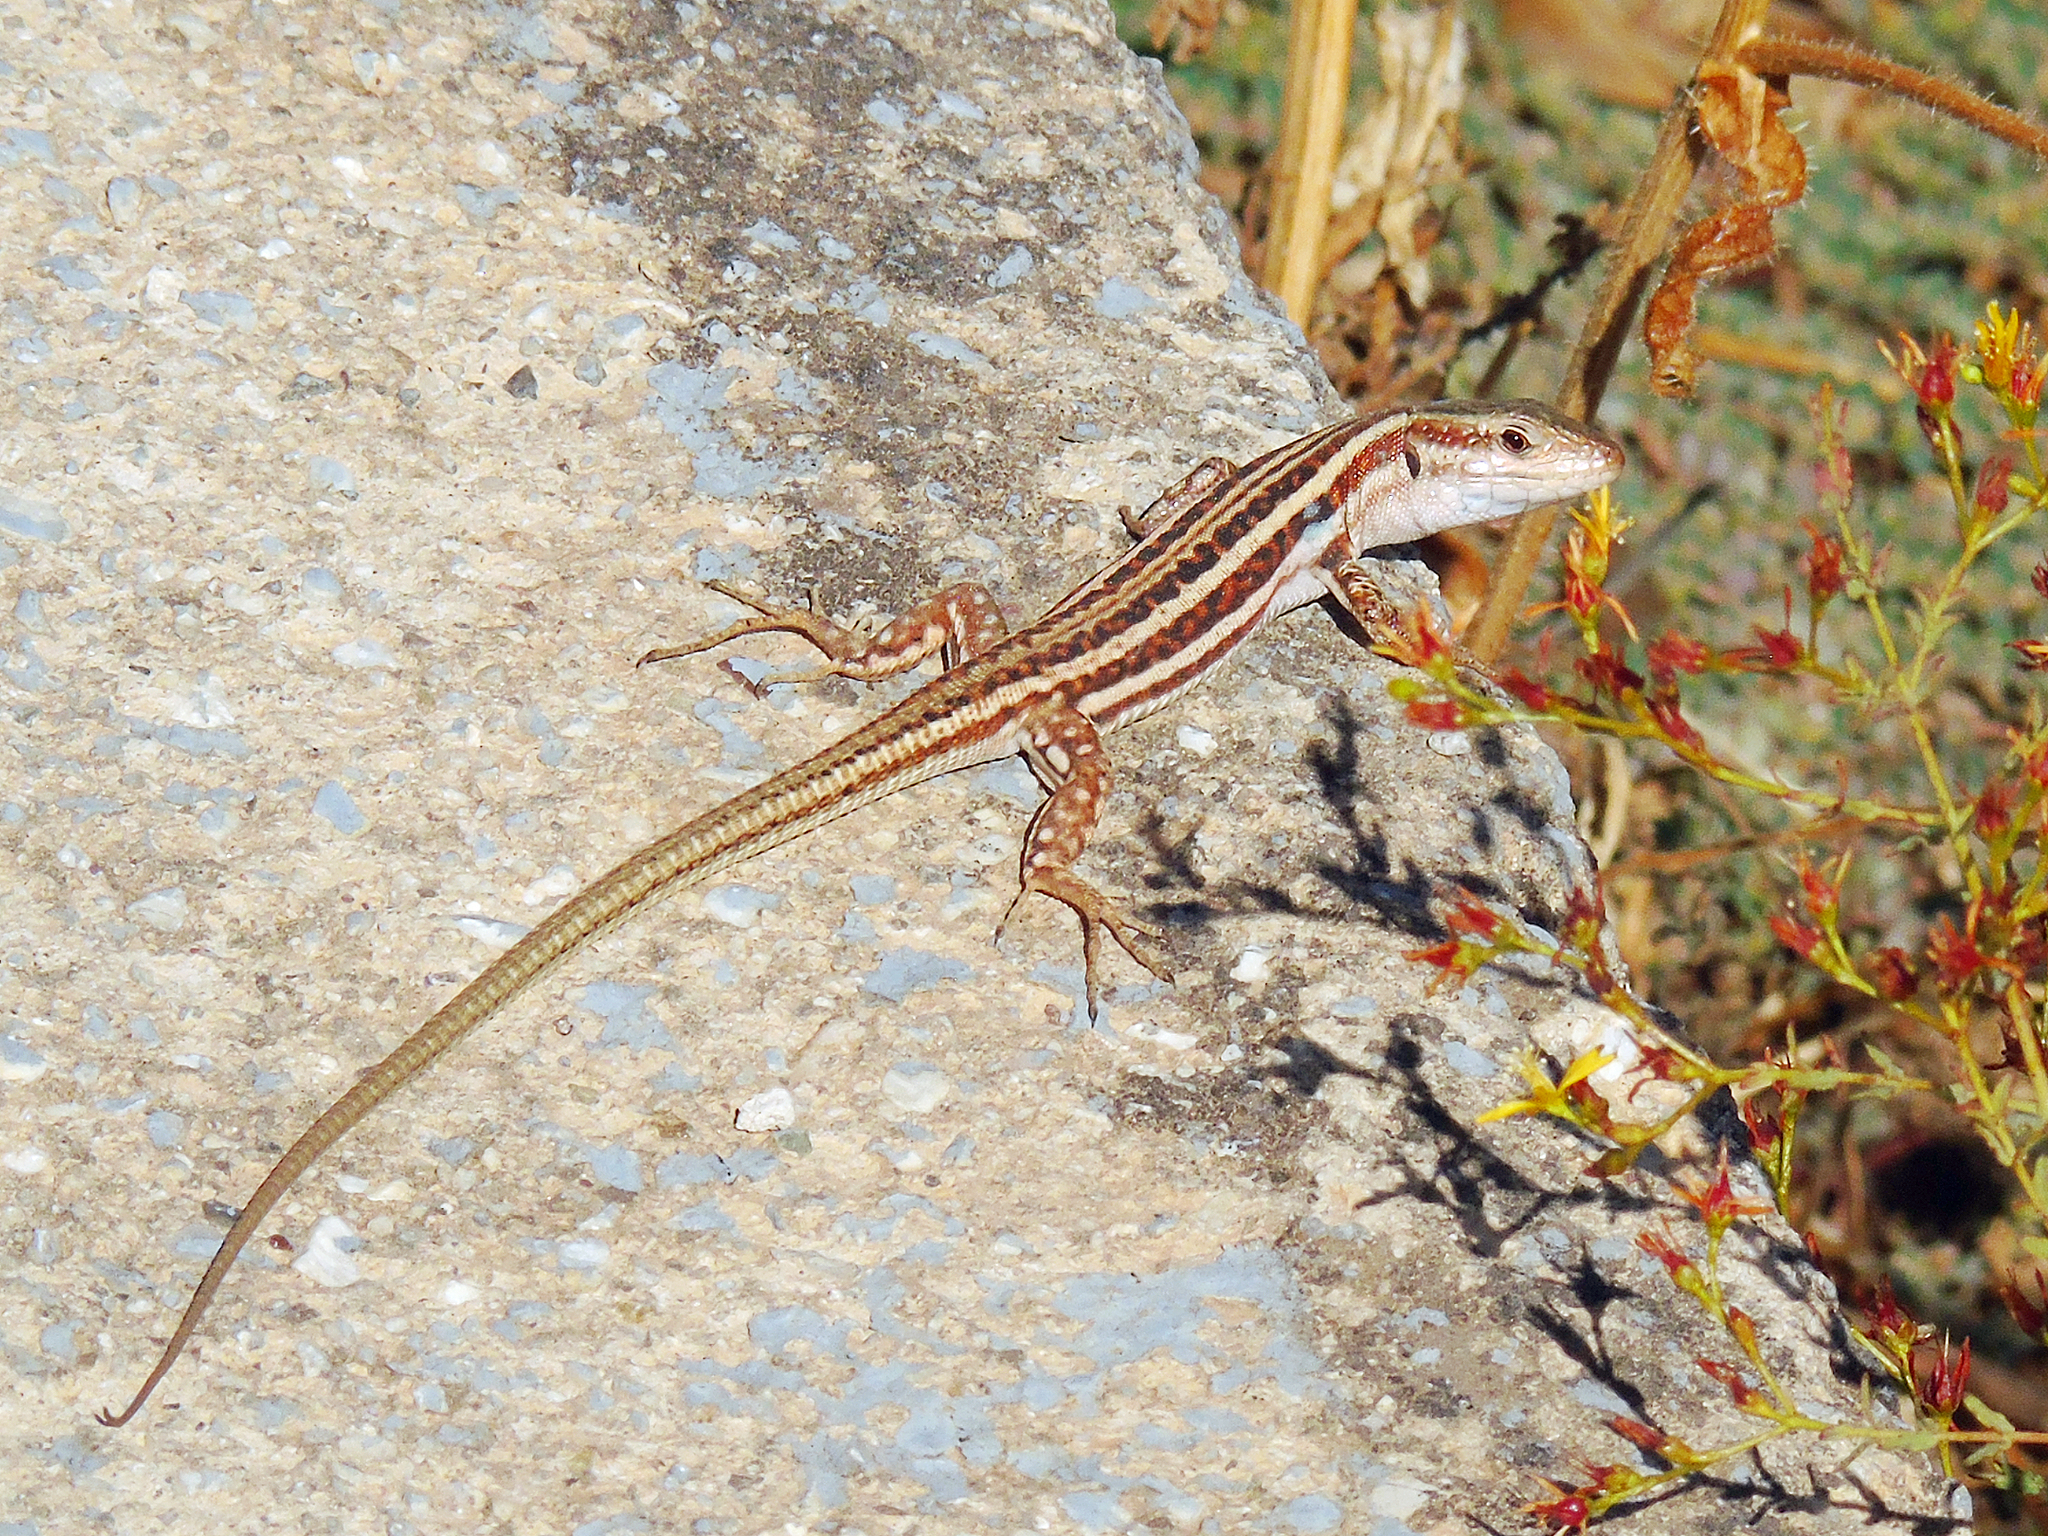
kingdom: Animalia
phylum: Chordata
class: Squamata
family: Lacertidae
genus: Podarcis
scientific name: Podarcis peloponnesiacus
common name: Peloponnese wall lizard
